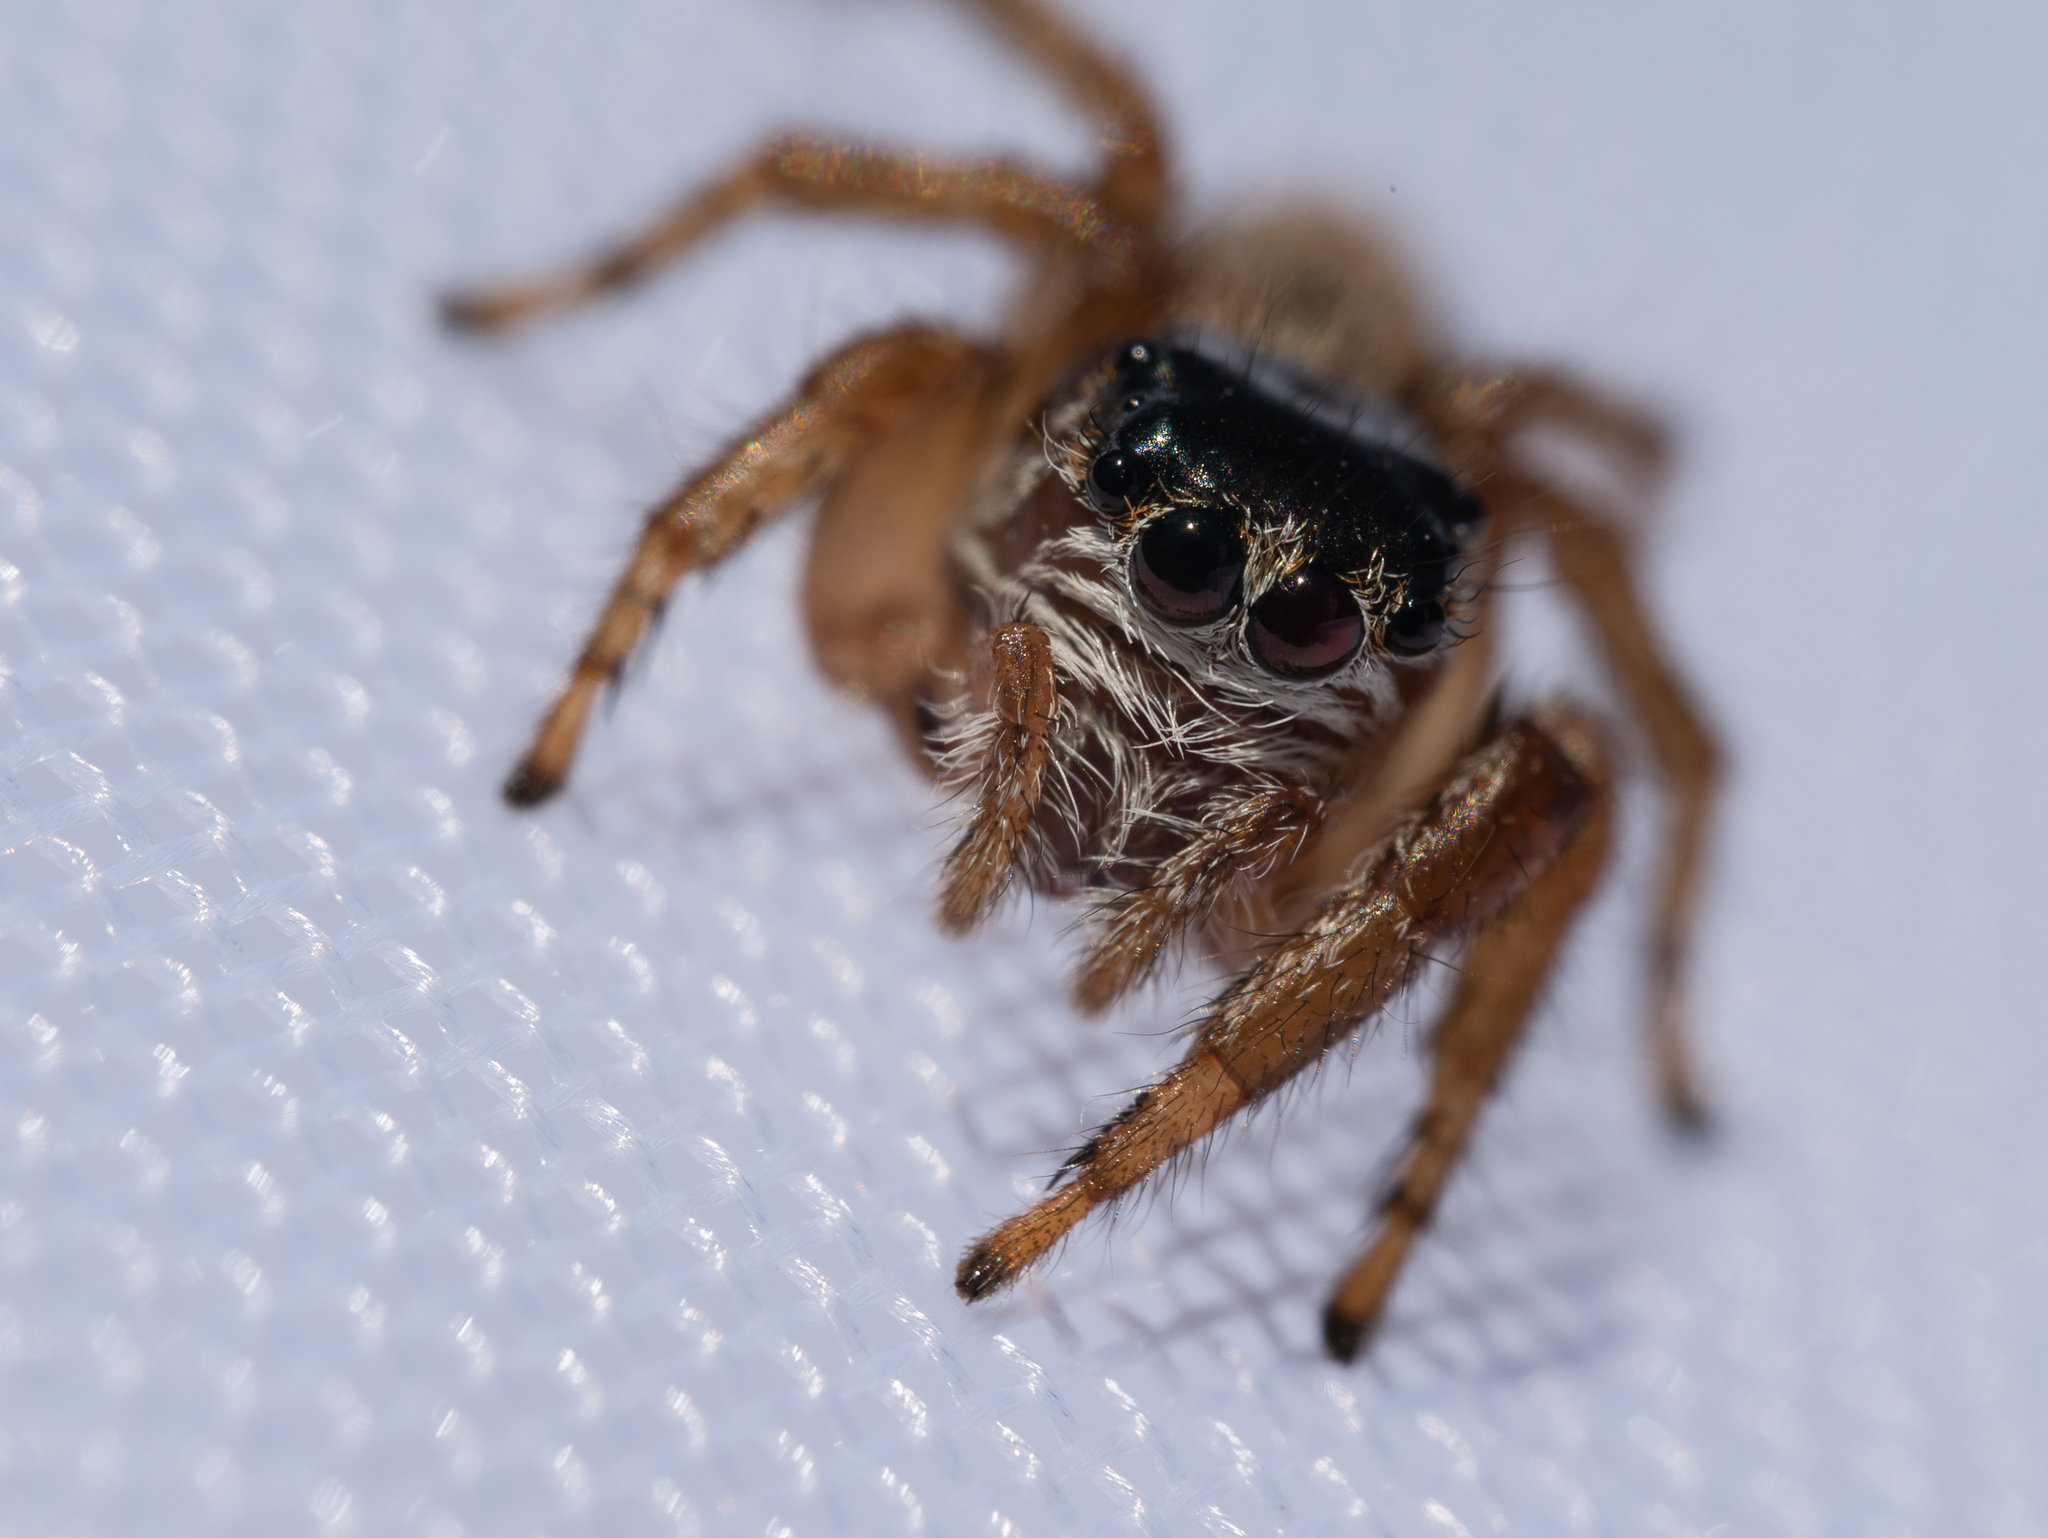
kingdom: Animalia
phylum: Arthropoda
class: Arachnida
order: Araneae
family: Salticidae
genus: Evarcha
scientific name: Evarcha arcuata
